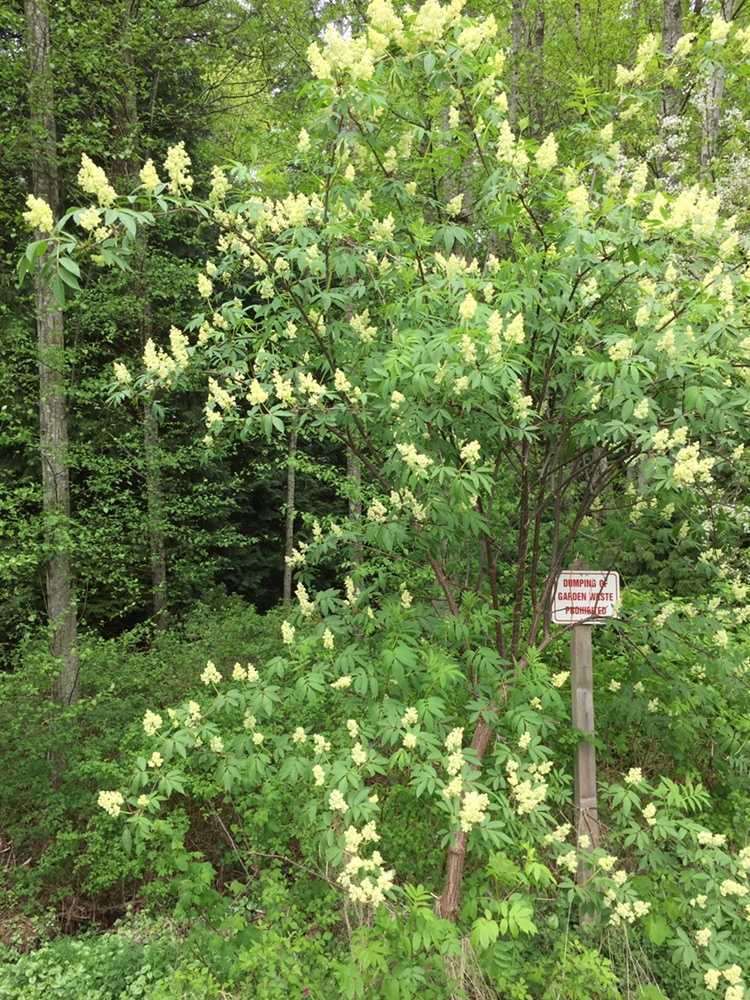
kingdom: Plantae
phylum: Tracheophyta
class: Magnoliopsida
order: Dipsacales
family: Viburnaceae
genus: Sambucus
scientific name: Sambucus racemosa
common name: Red-berried elder
